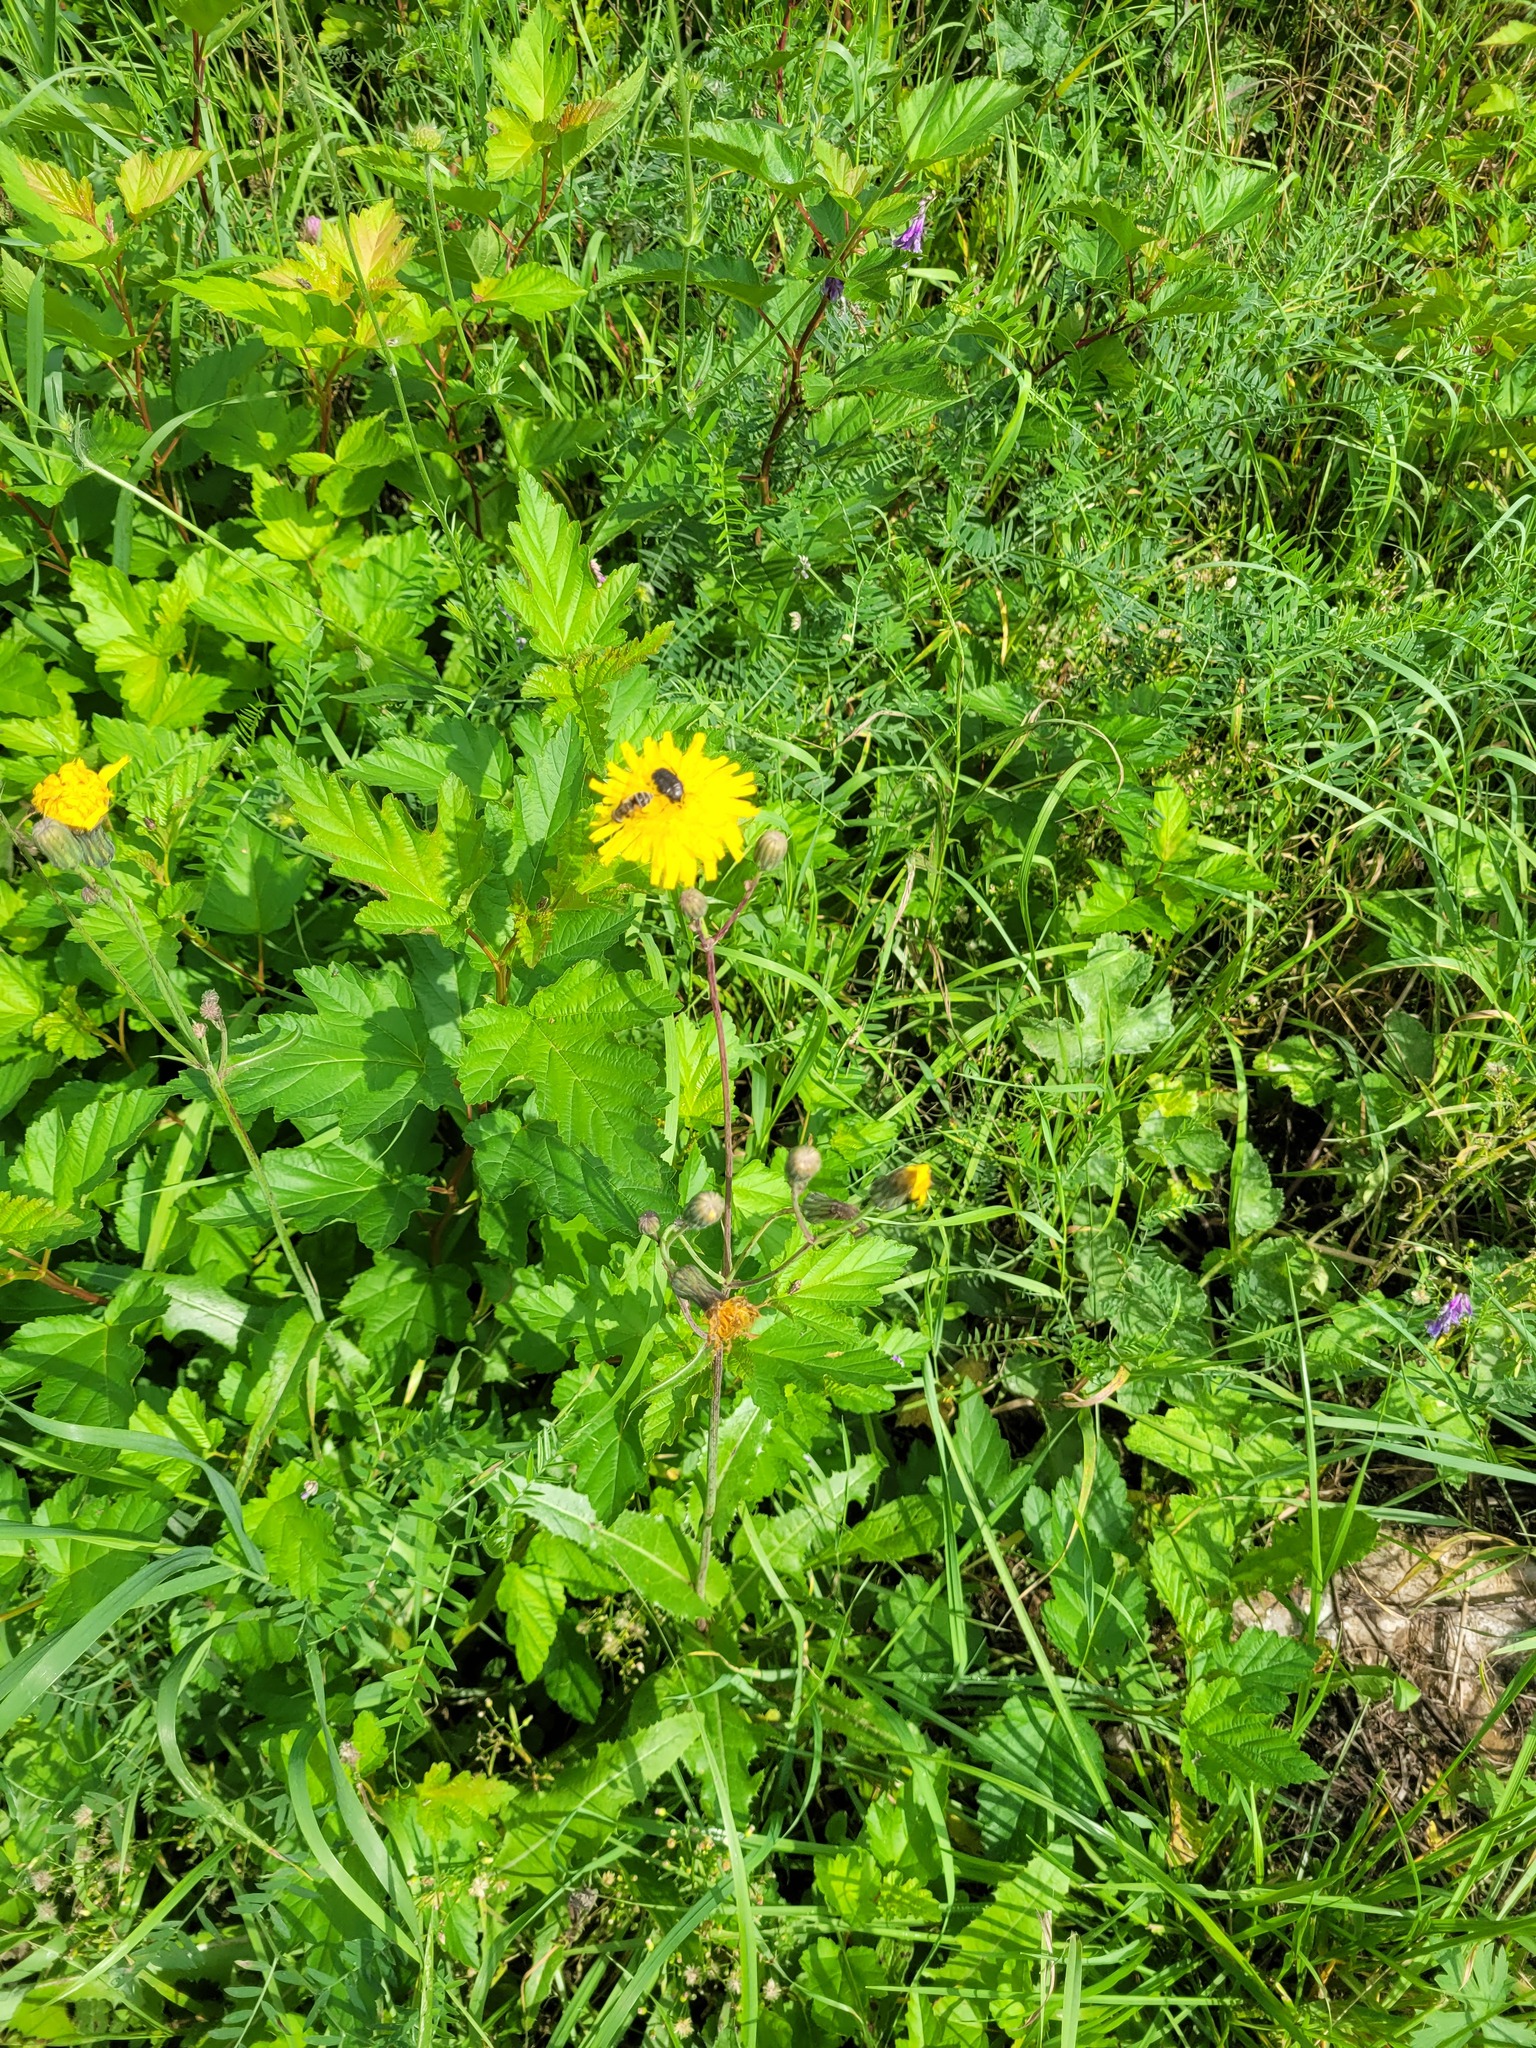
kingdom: Plantae
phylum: Tracheophyta
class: Magnoliopsida
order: Asterales
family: Asteraceae
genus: Sonchus
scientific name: Sonchus arvensis
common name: Perennial sow-thistle
